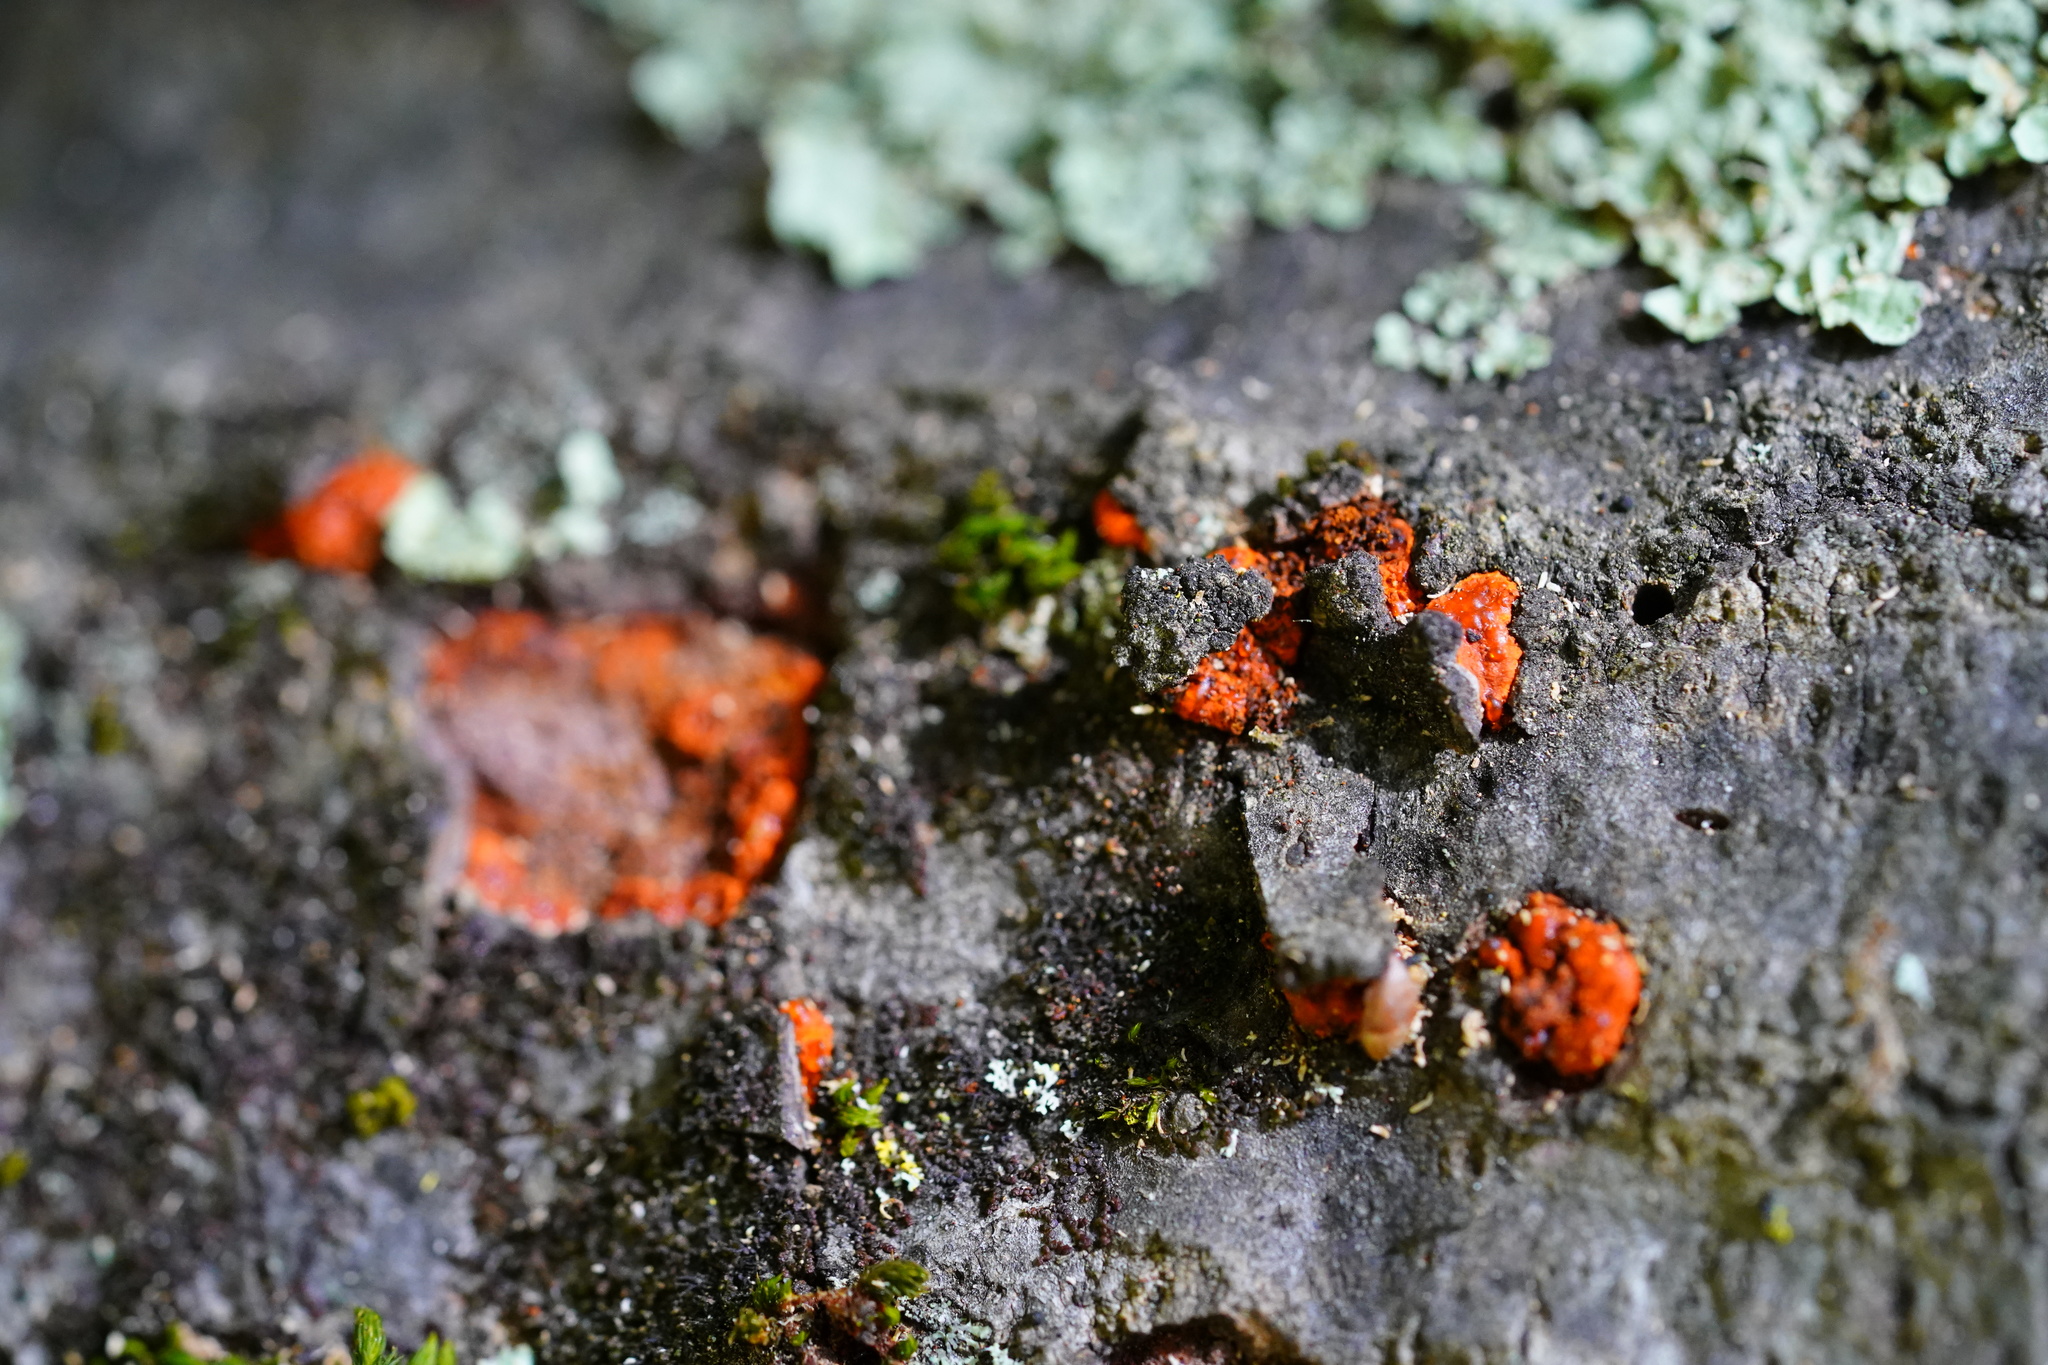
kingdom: Fungi
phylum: Ascomycota
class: Sordariomycetes
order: Diaporthales
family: Cryphonectriaceae
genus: Amphilogia
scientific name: Amphilogia gyrosa
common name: Orange hobnail canker
